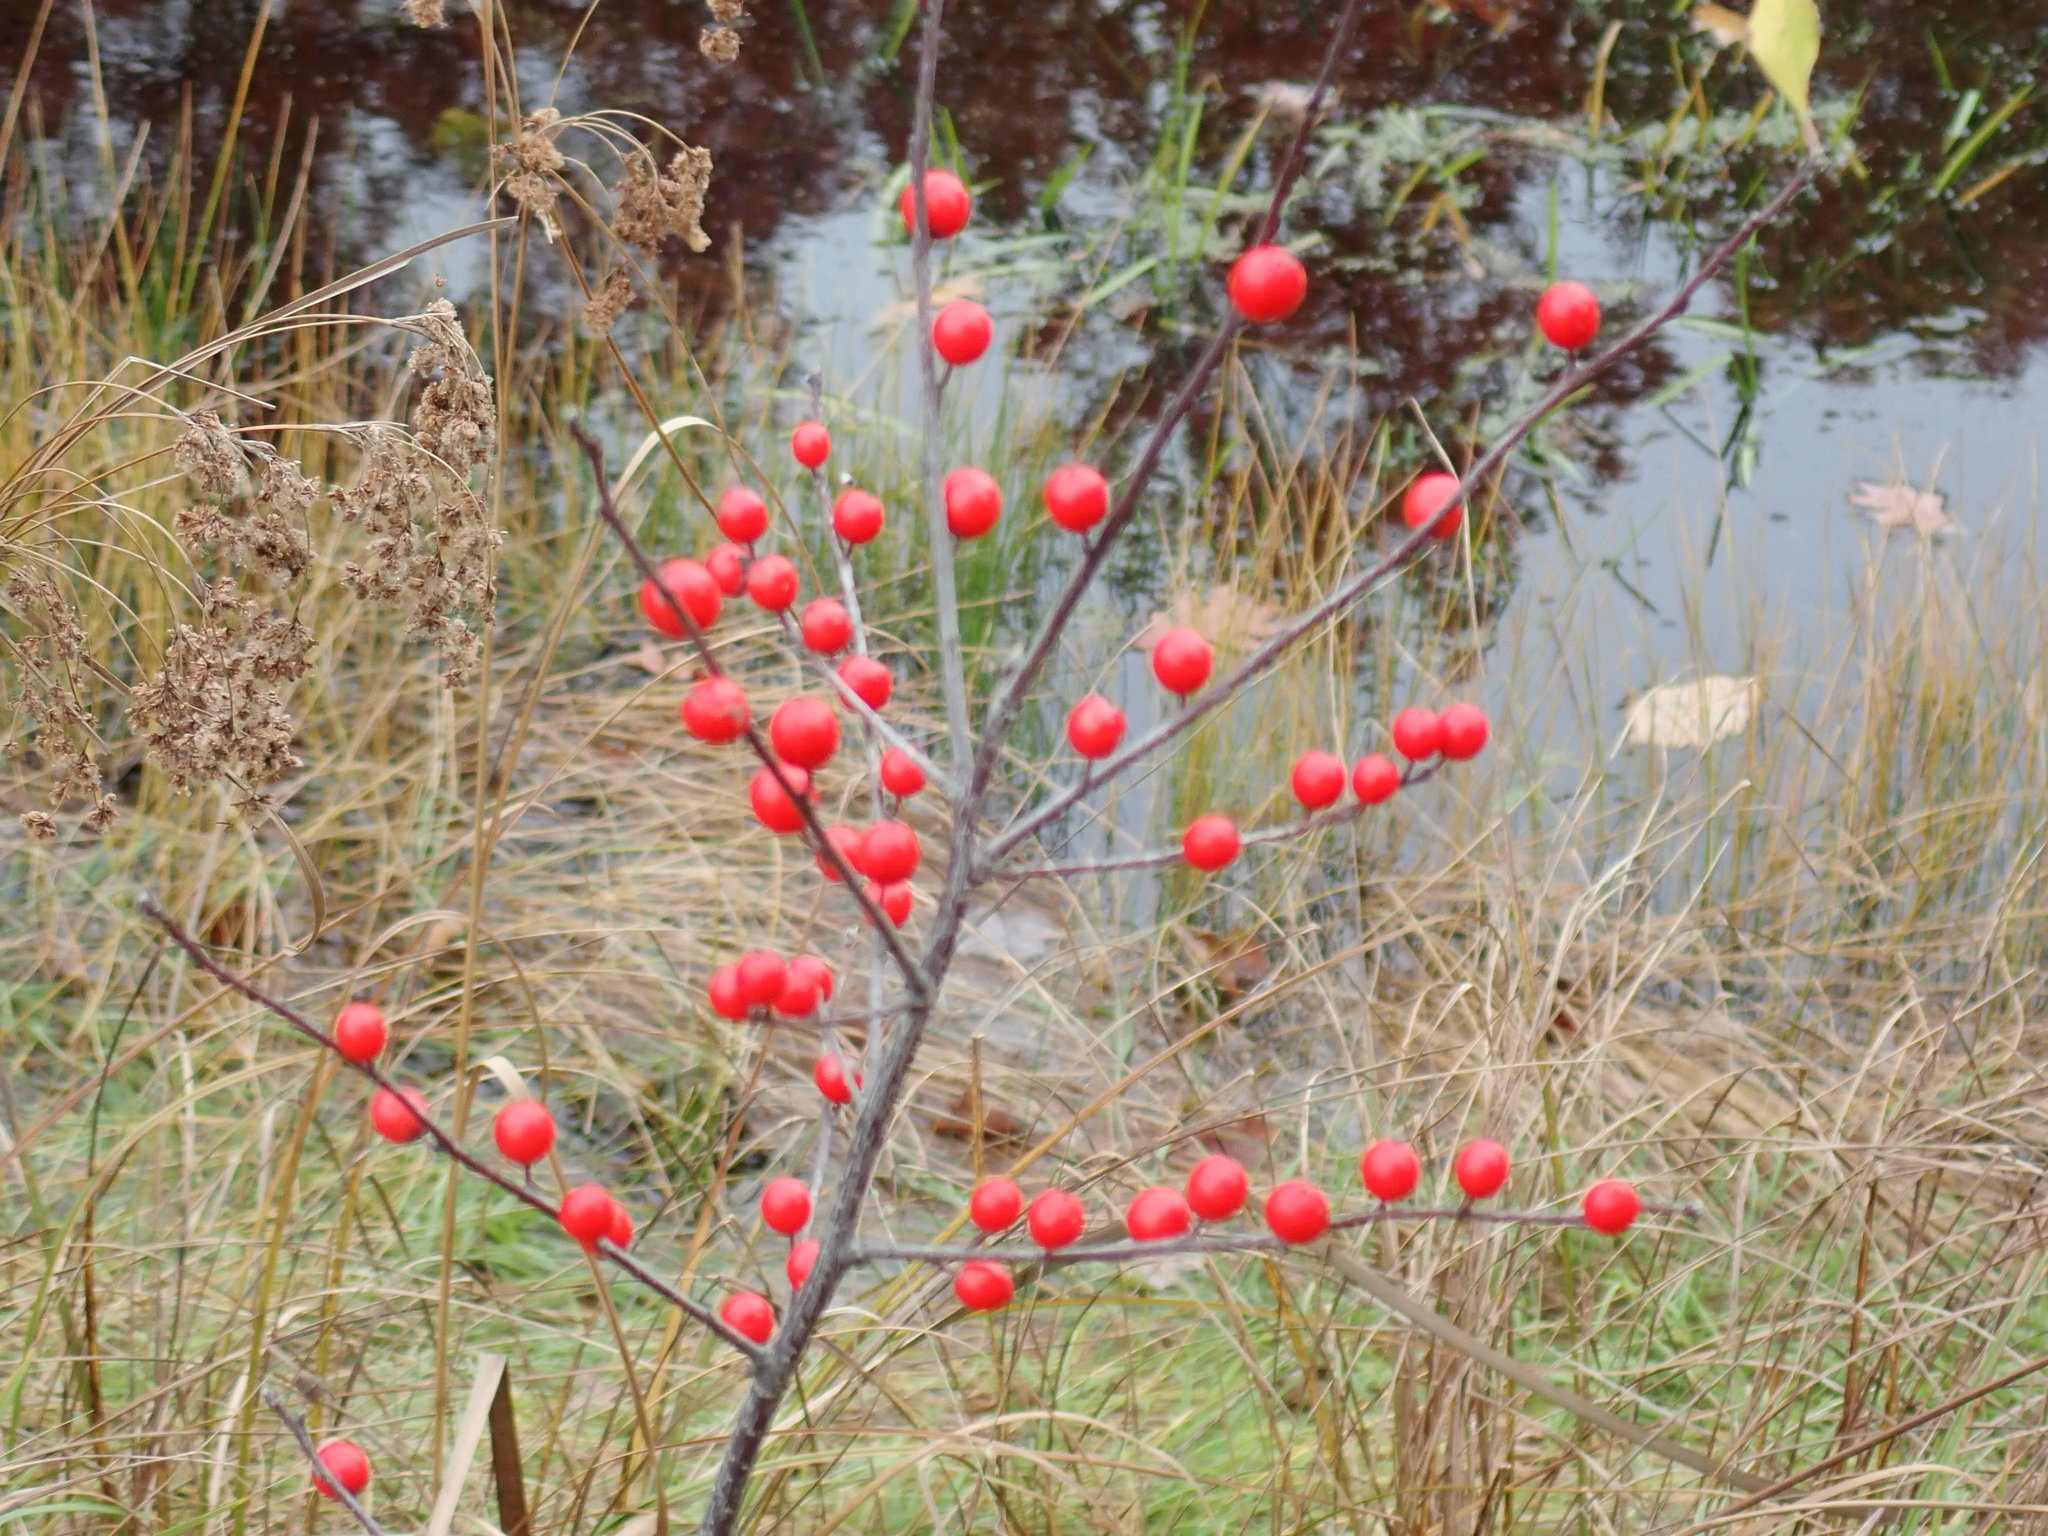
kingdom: Plantae
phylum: Tracheophyta
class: Magnoliopsida
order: Aquifoliales
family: Aquifoliaceae
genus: Ilex
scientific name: Ilex verticillata
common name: Virginia winterberry
